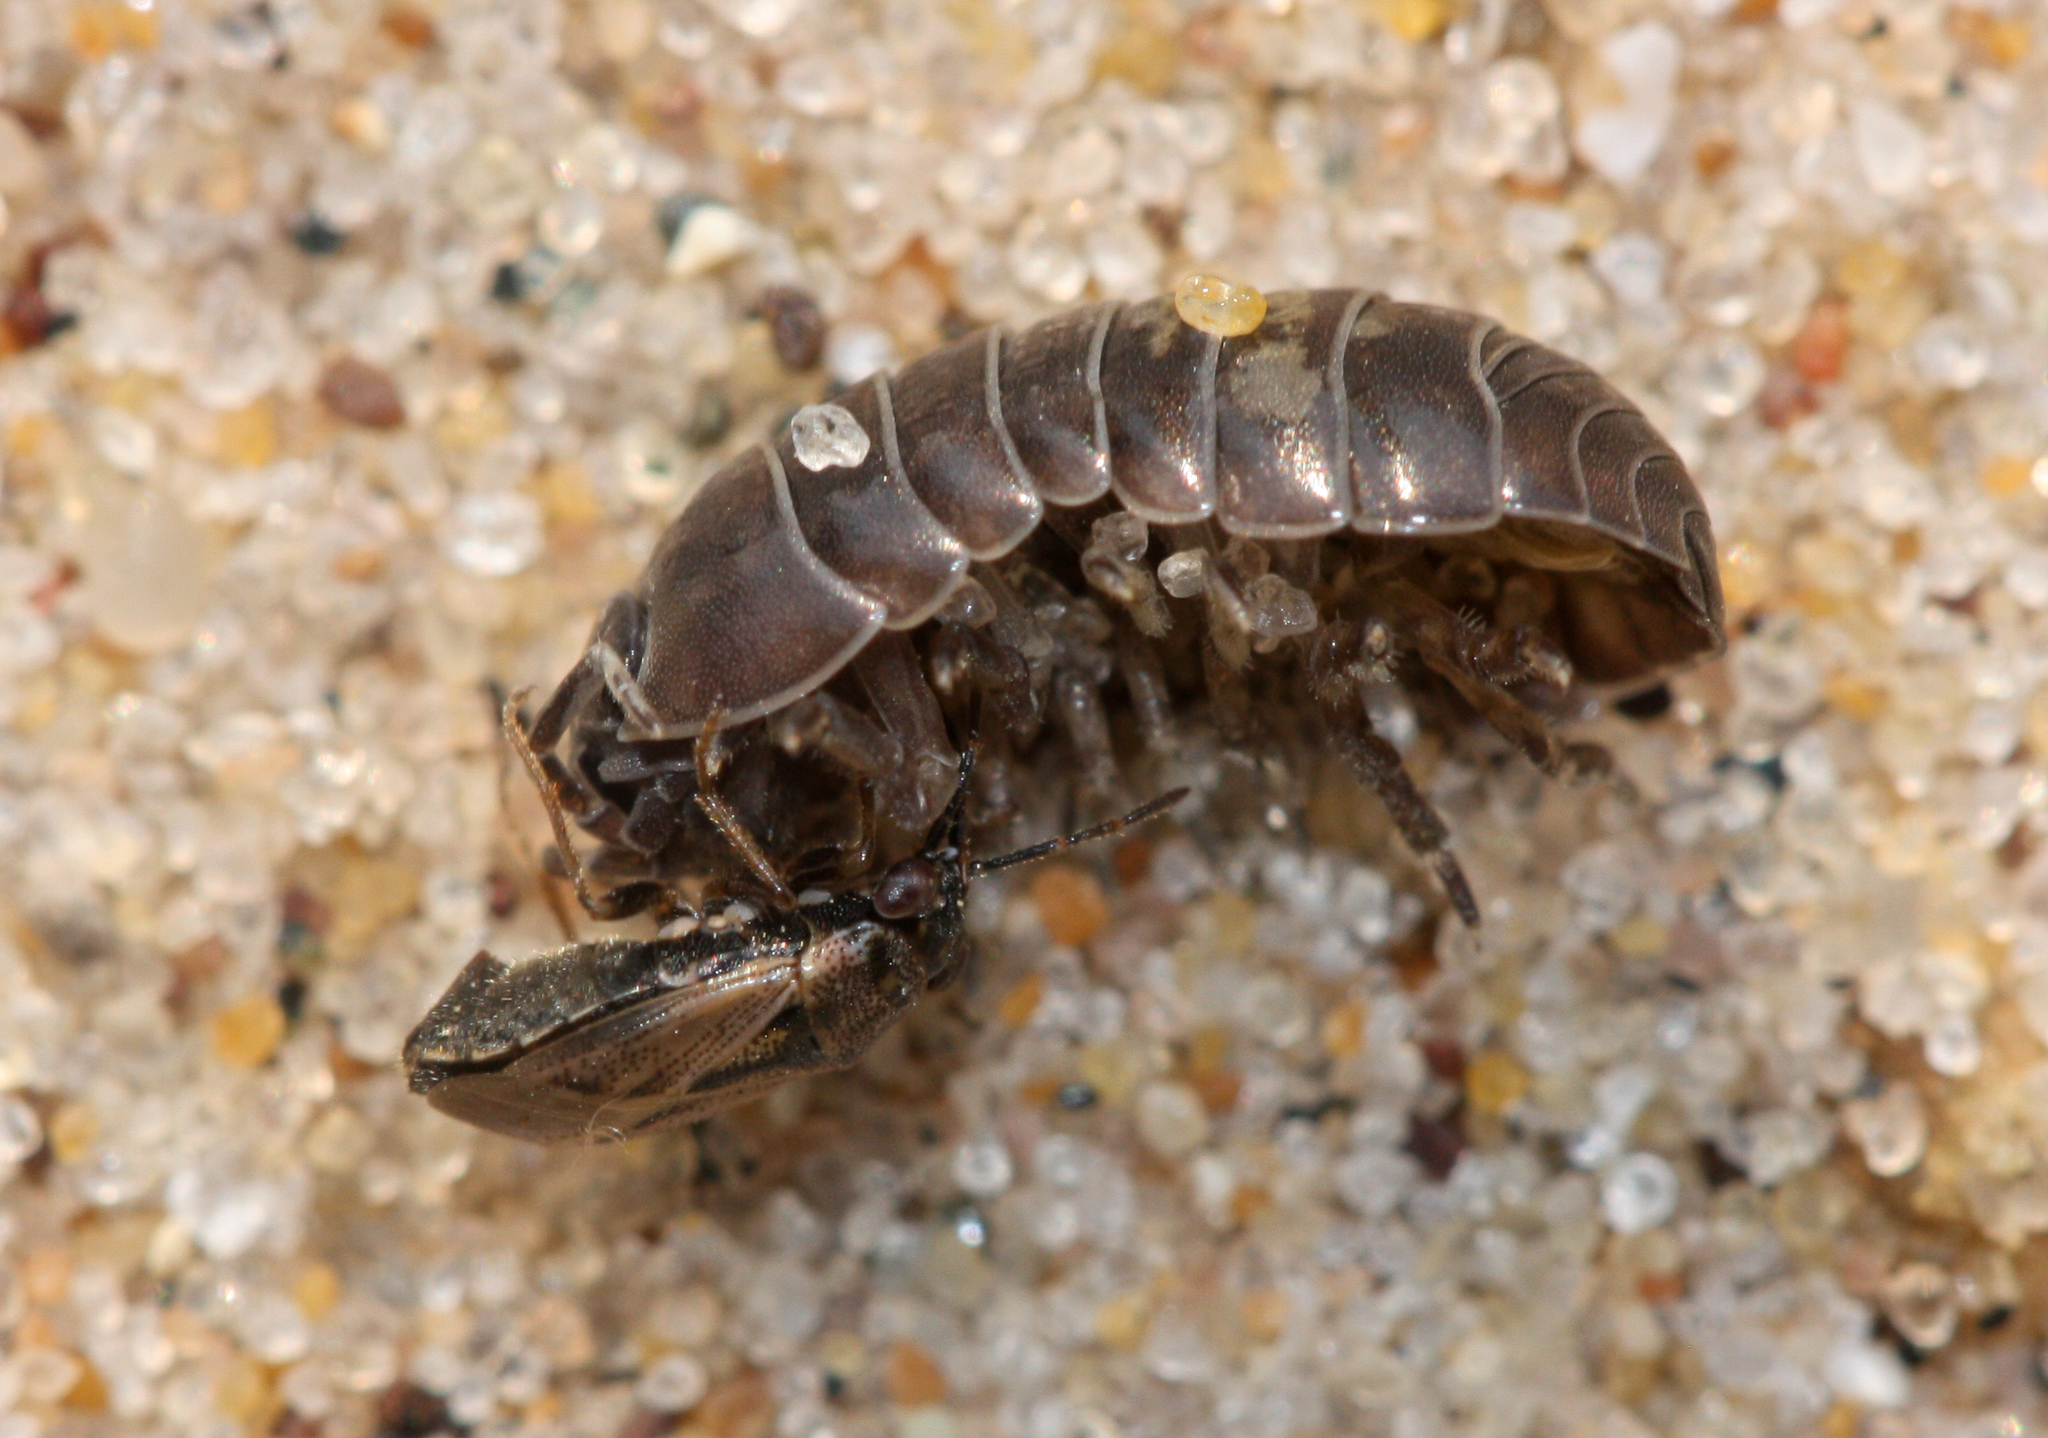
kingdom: Animalia
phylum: Arthropoda
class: Malacostraca
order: Isopoda
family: Armadillidiidae
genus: Armadillidium
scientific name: Armadillidium vulgare
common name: Common pill woodlouse
